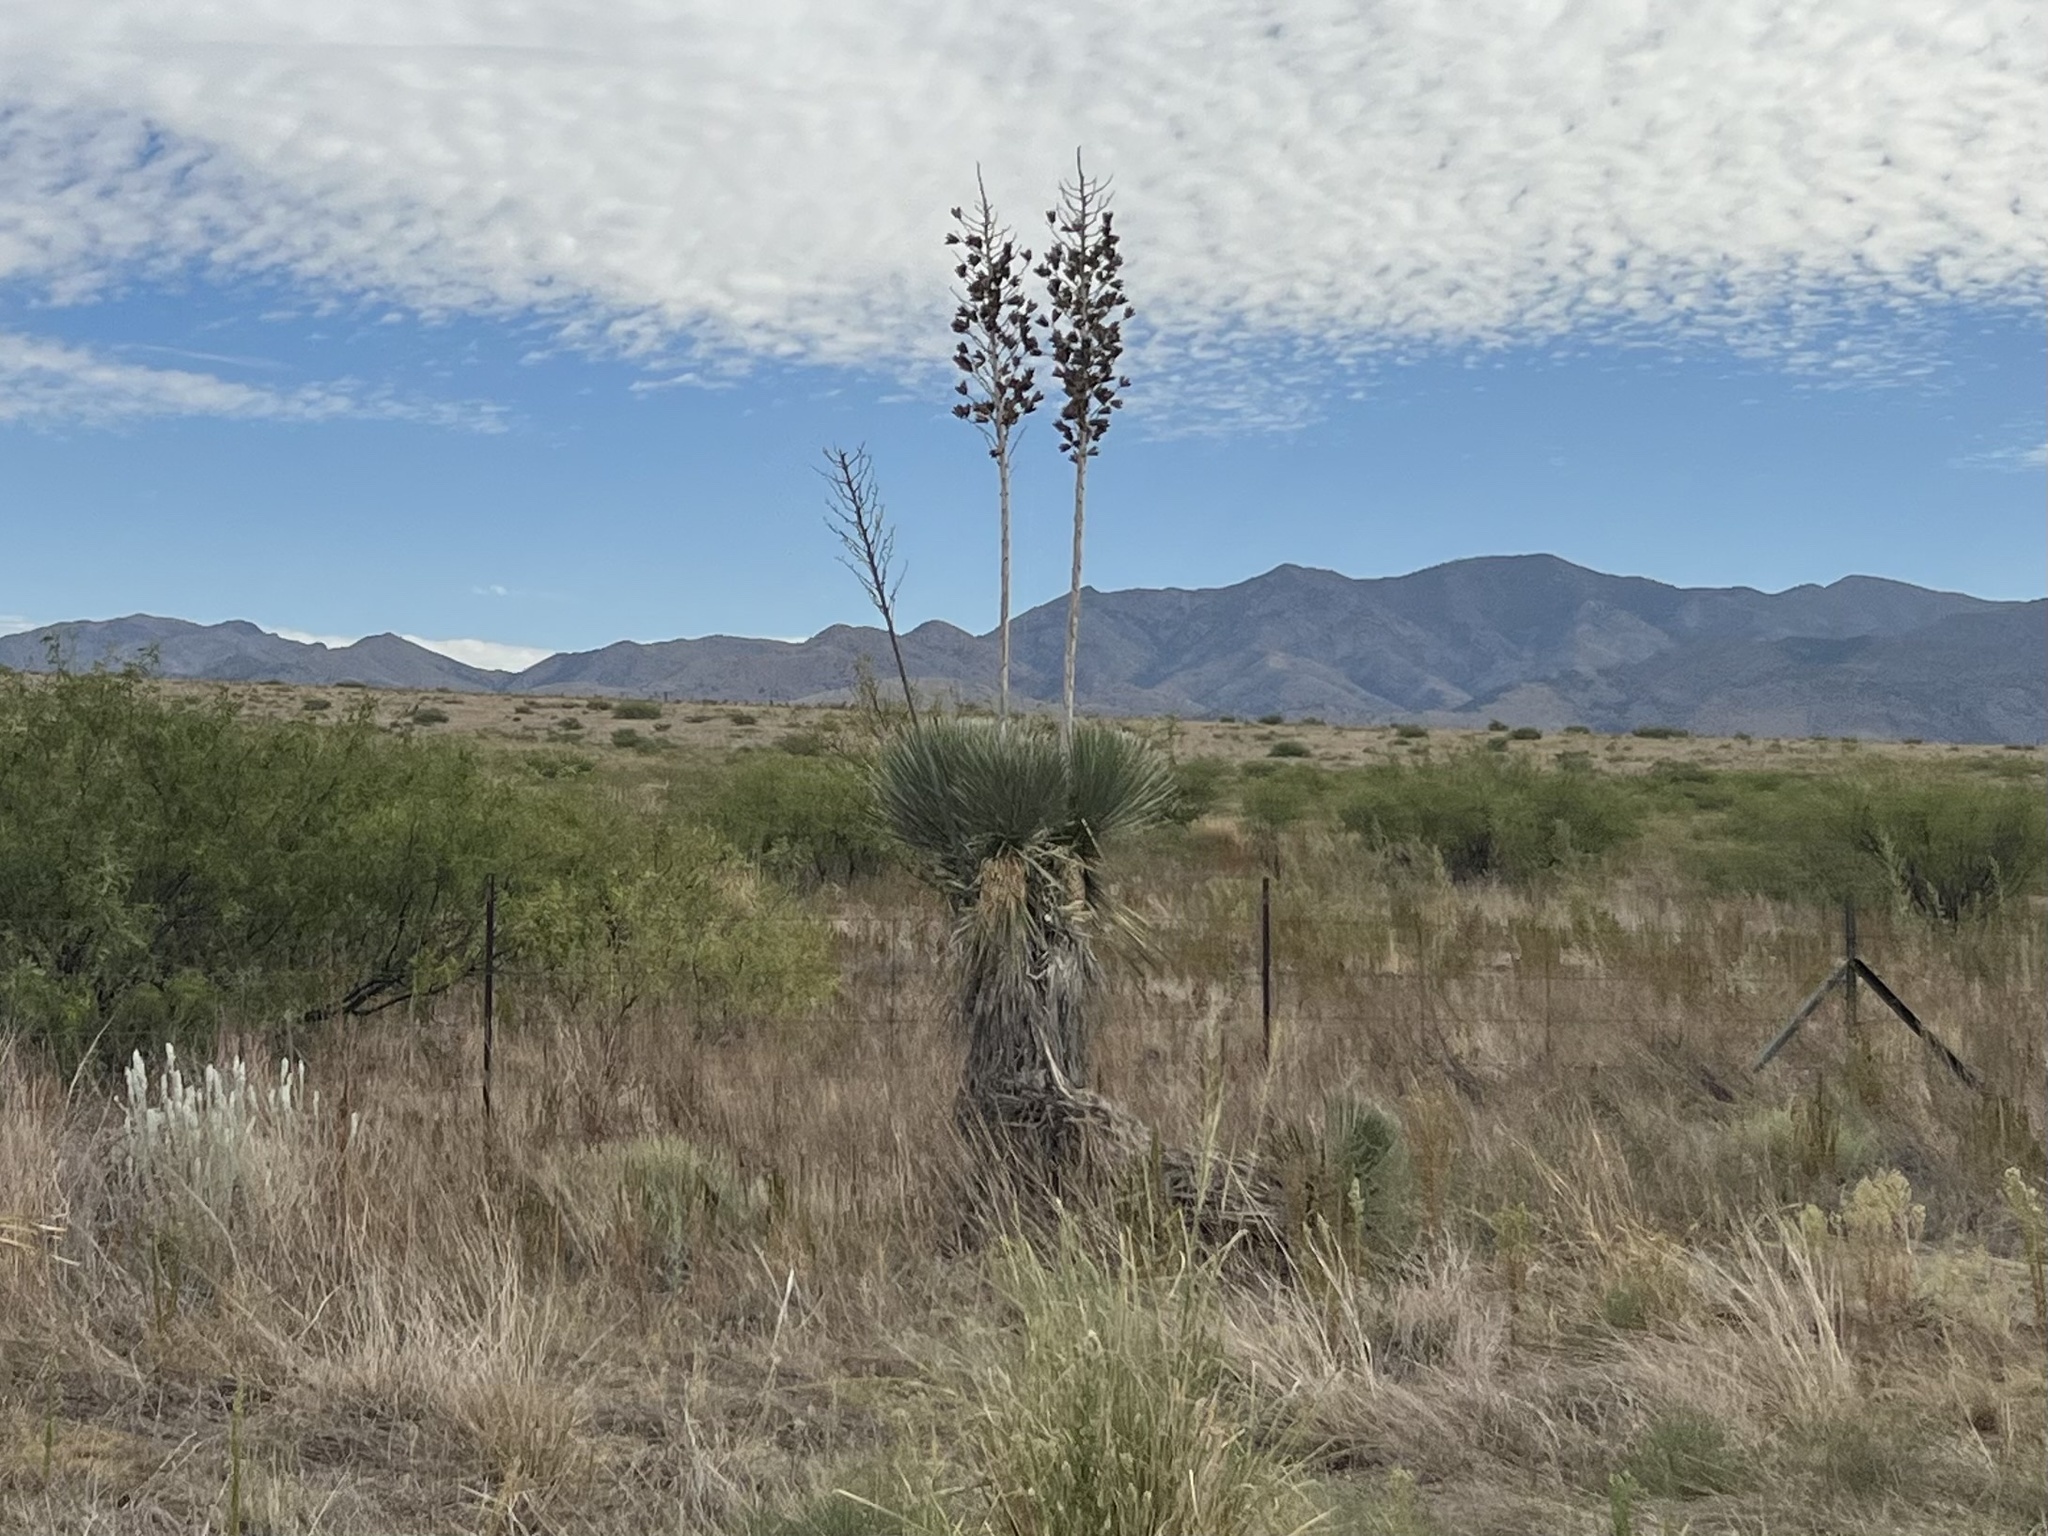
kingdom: Plantae
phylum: Tracheophyta
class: Liliopsida
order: Asparagales
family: Asparagaceae
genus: Yucca
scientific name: Yucca elata
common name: Palmella
